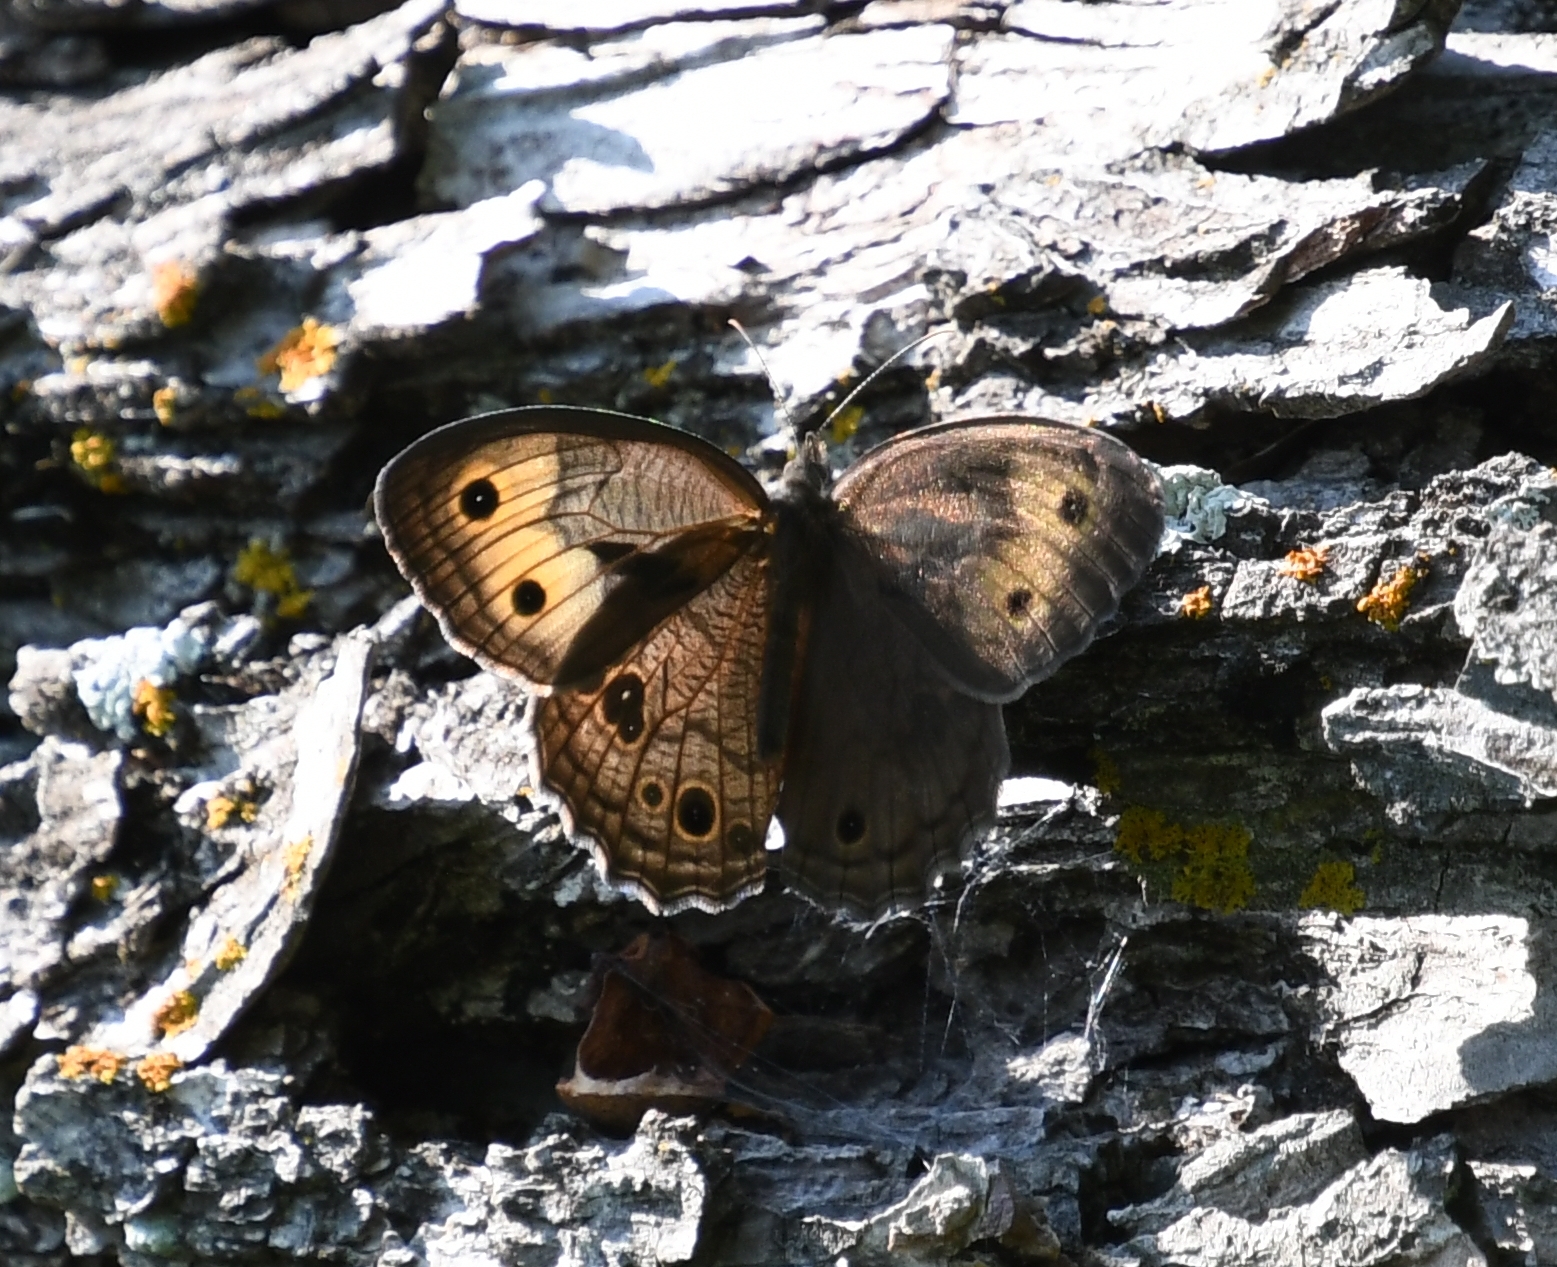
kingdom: Animalia
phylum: Arthropoda
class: Insecta
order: Lepidoptera
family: Nymphalidae
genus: Cercyonis
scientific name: Cercyonis pegala
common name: Common wood-nymph
